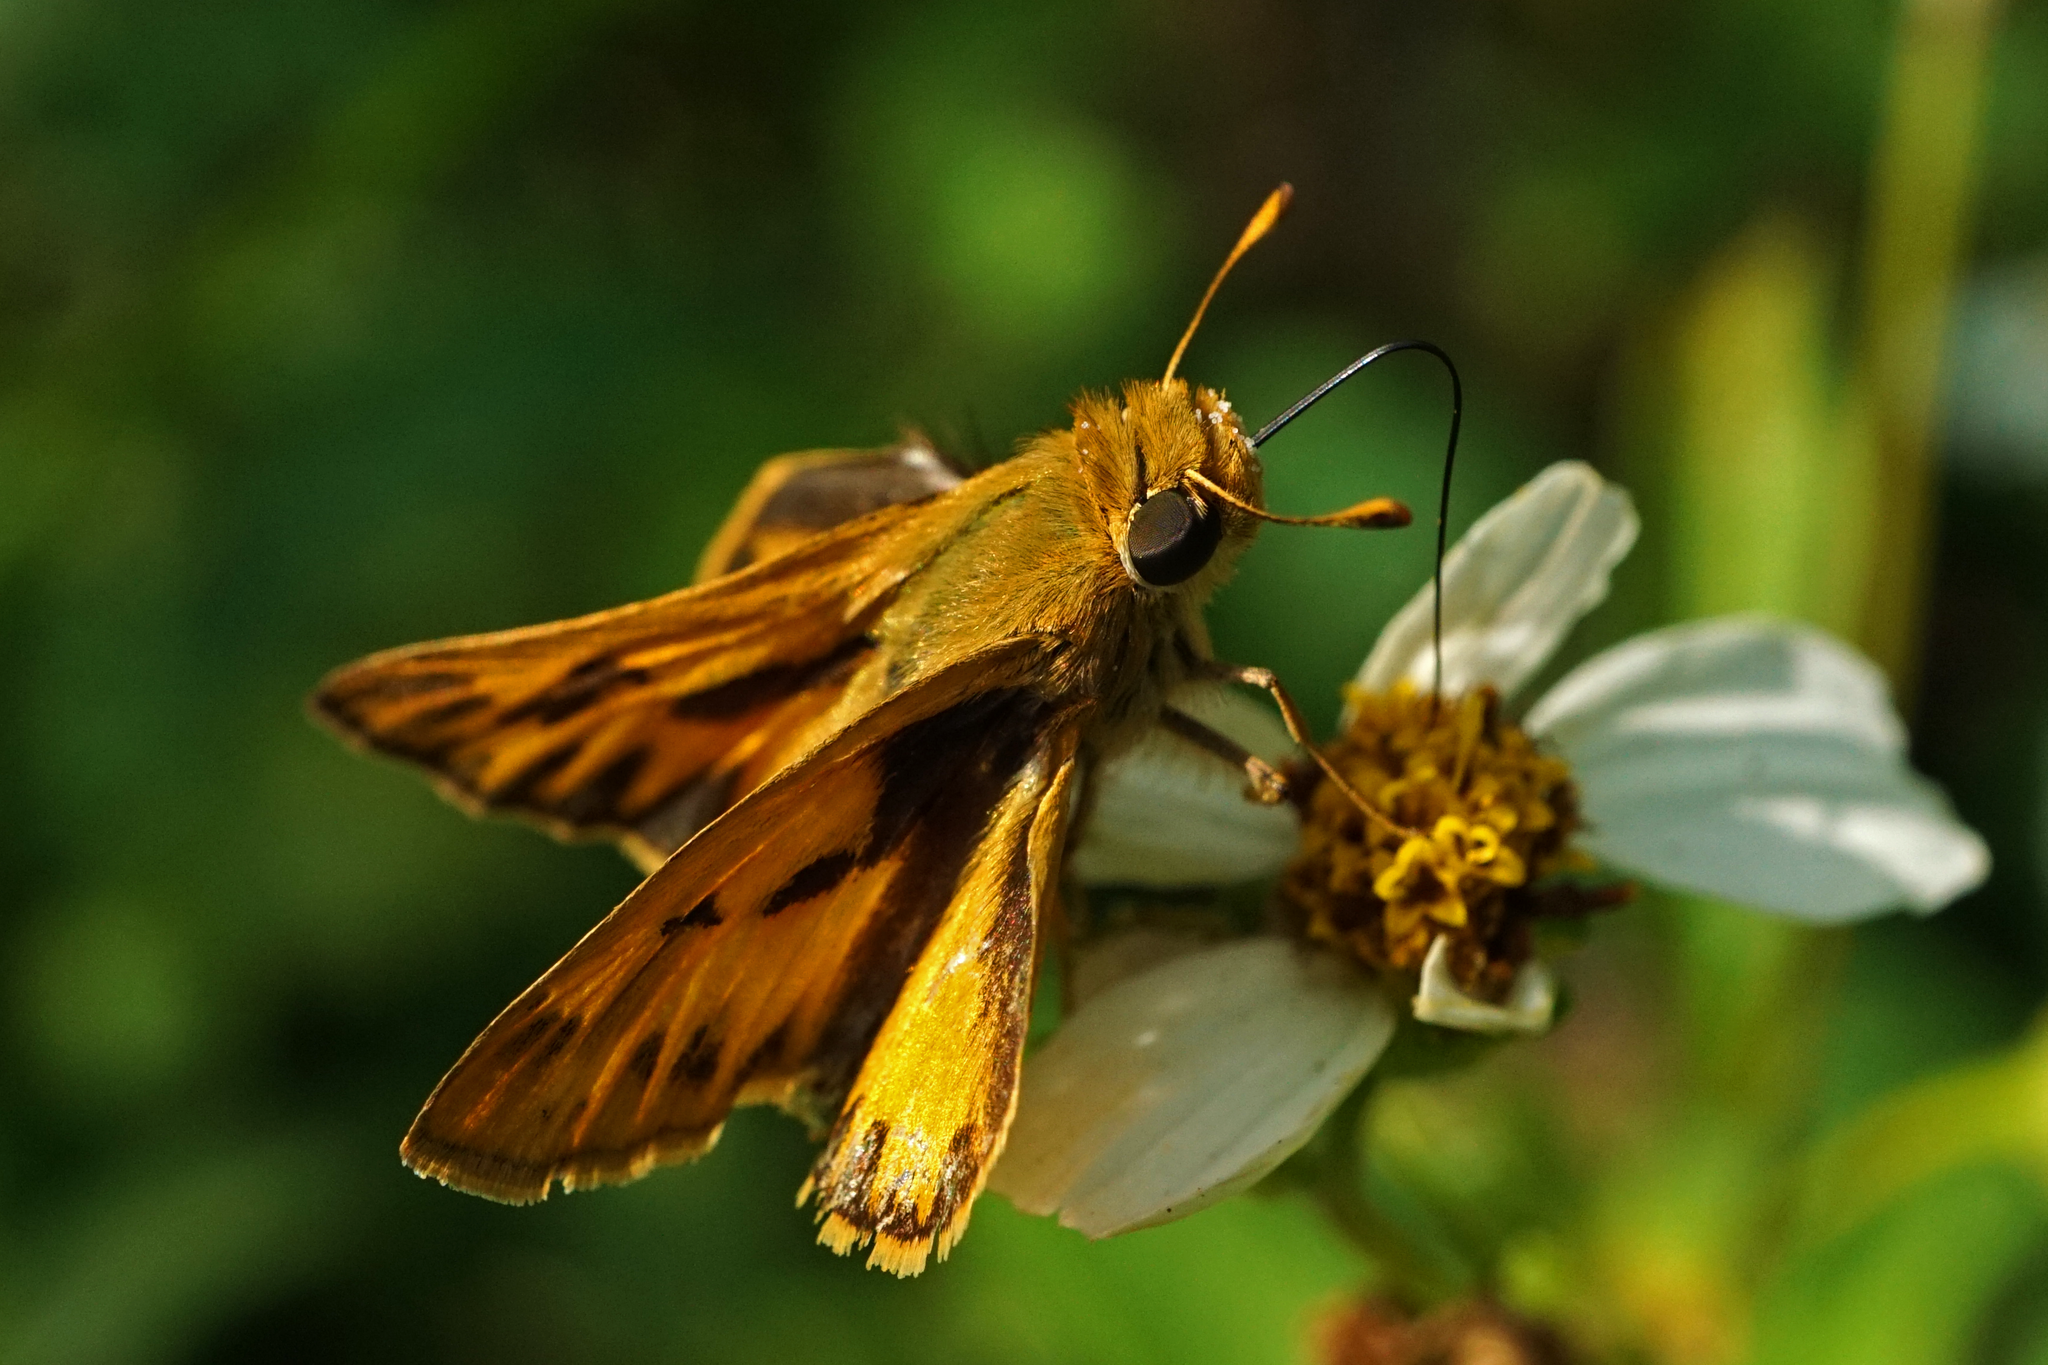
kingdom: Animalia
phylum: Arthropoda
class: Insecta
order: Lepidoptera
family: Hesperiidae
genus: Hylephila
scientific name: Hylephila phyleus
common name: Fiery skipper
